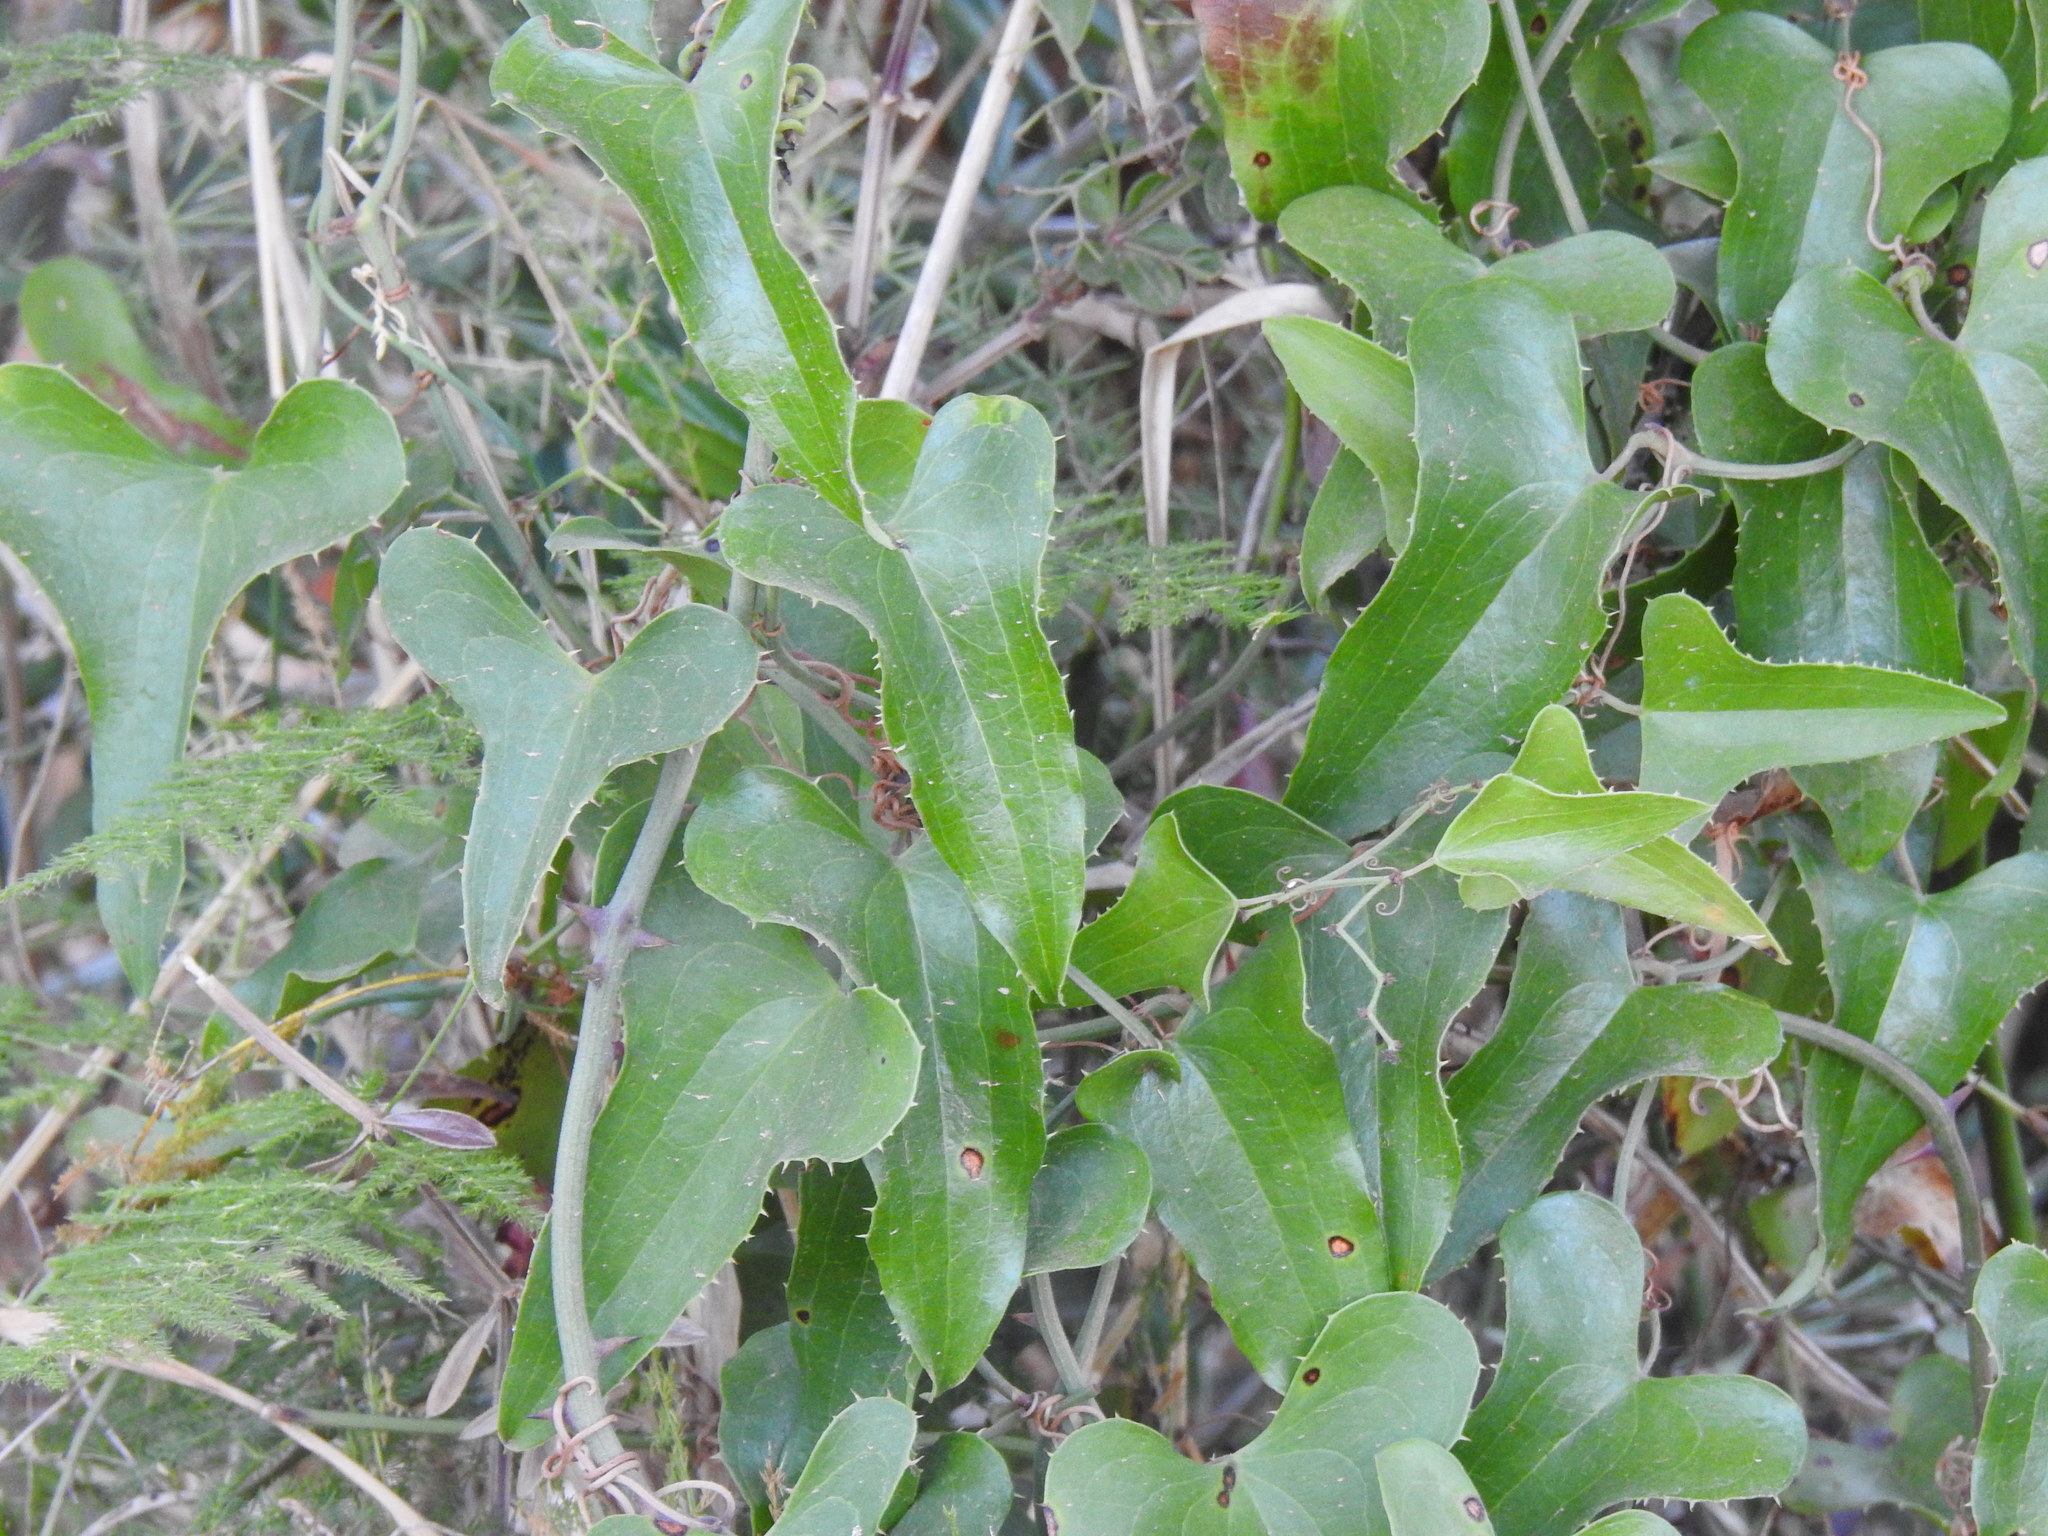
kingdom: Plantae
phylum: Tracheophyta
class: Liliopsida
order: Liliales
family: Smilacaceae
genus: Smilax
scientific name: Smilax aspera
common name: Common smilax
